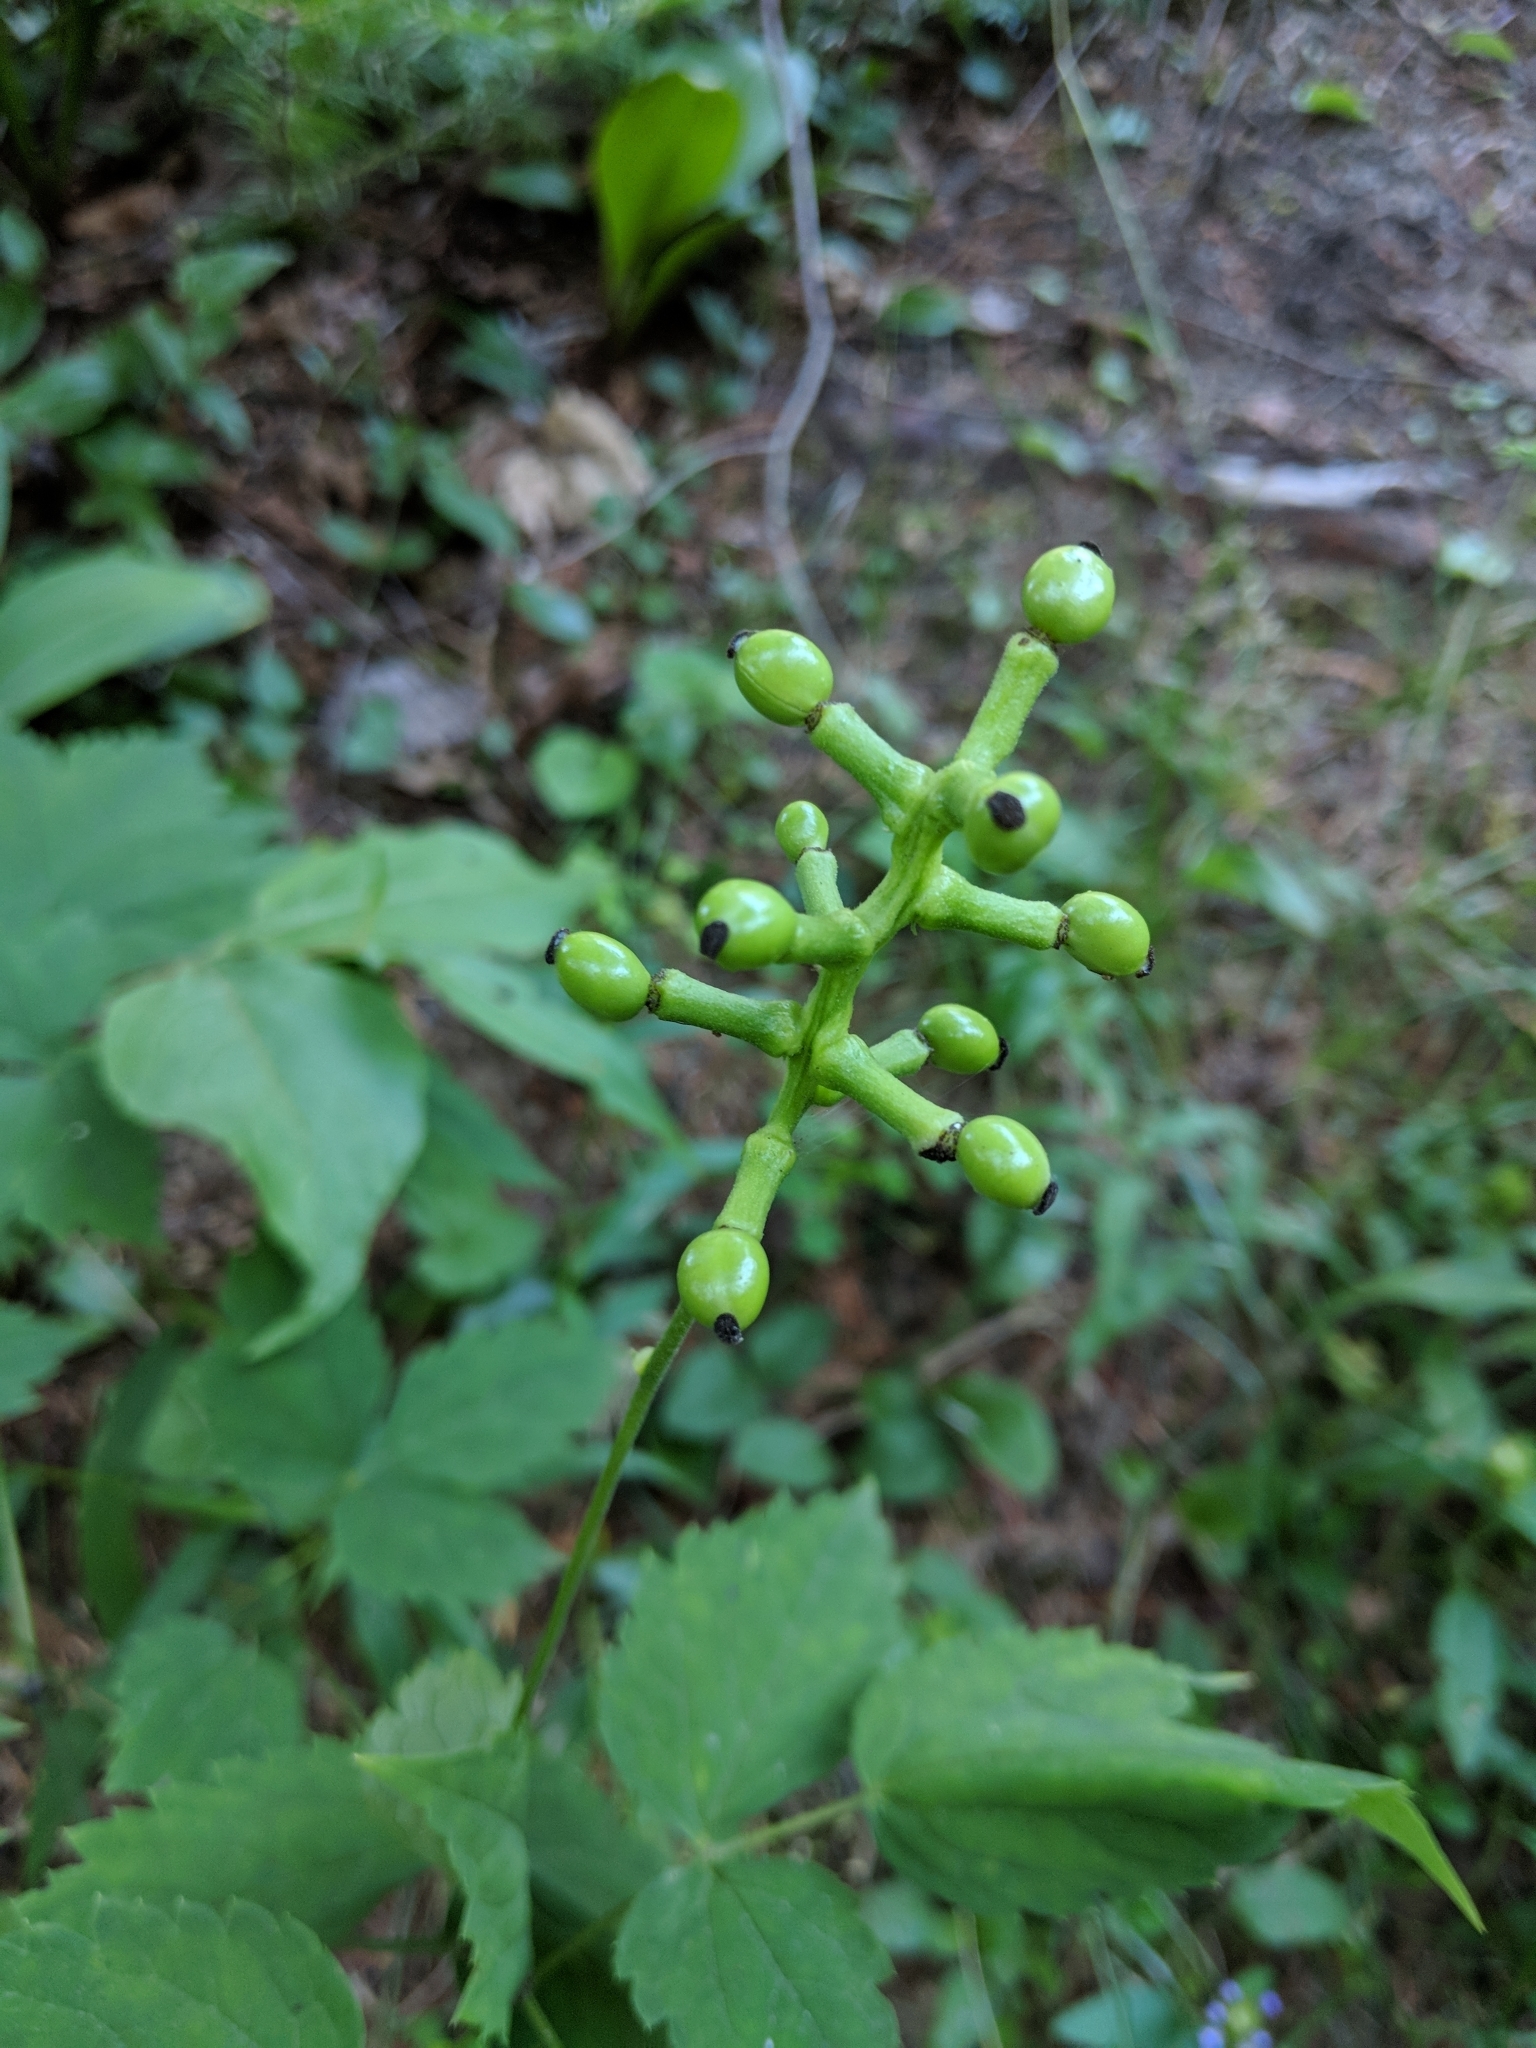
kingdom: Plantae
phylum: Tracheophyta
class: Magnoliopsida
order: Ranunculales
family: Ranunculaceae
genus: Actaea
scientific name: Actaea pachypoda
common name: Doll's-eyes
